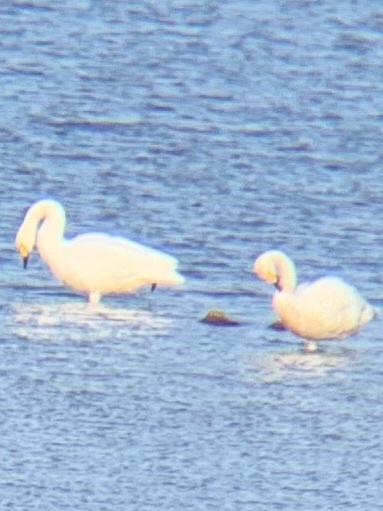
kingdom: Animalia
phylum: Chordata
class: Aves
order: Anseriformes
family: Anatidae
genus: Cygnus
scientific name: Cygnus columbianus
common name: Tundra swan
